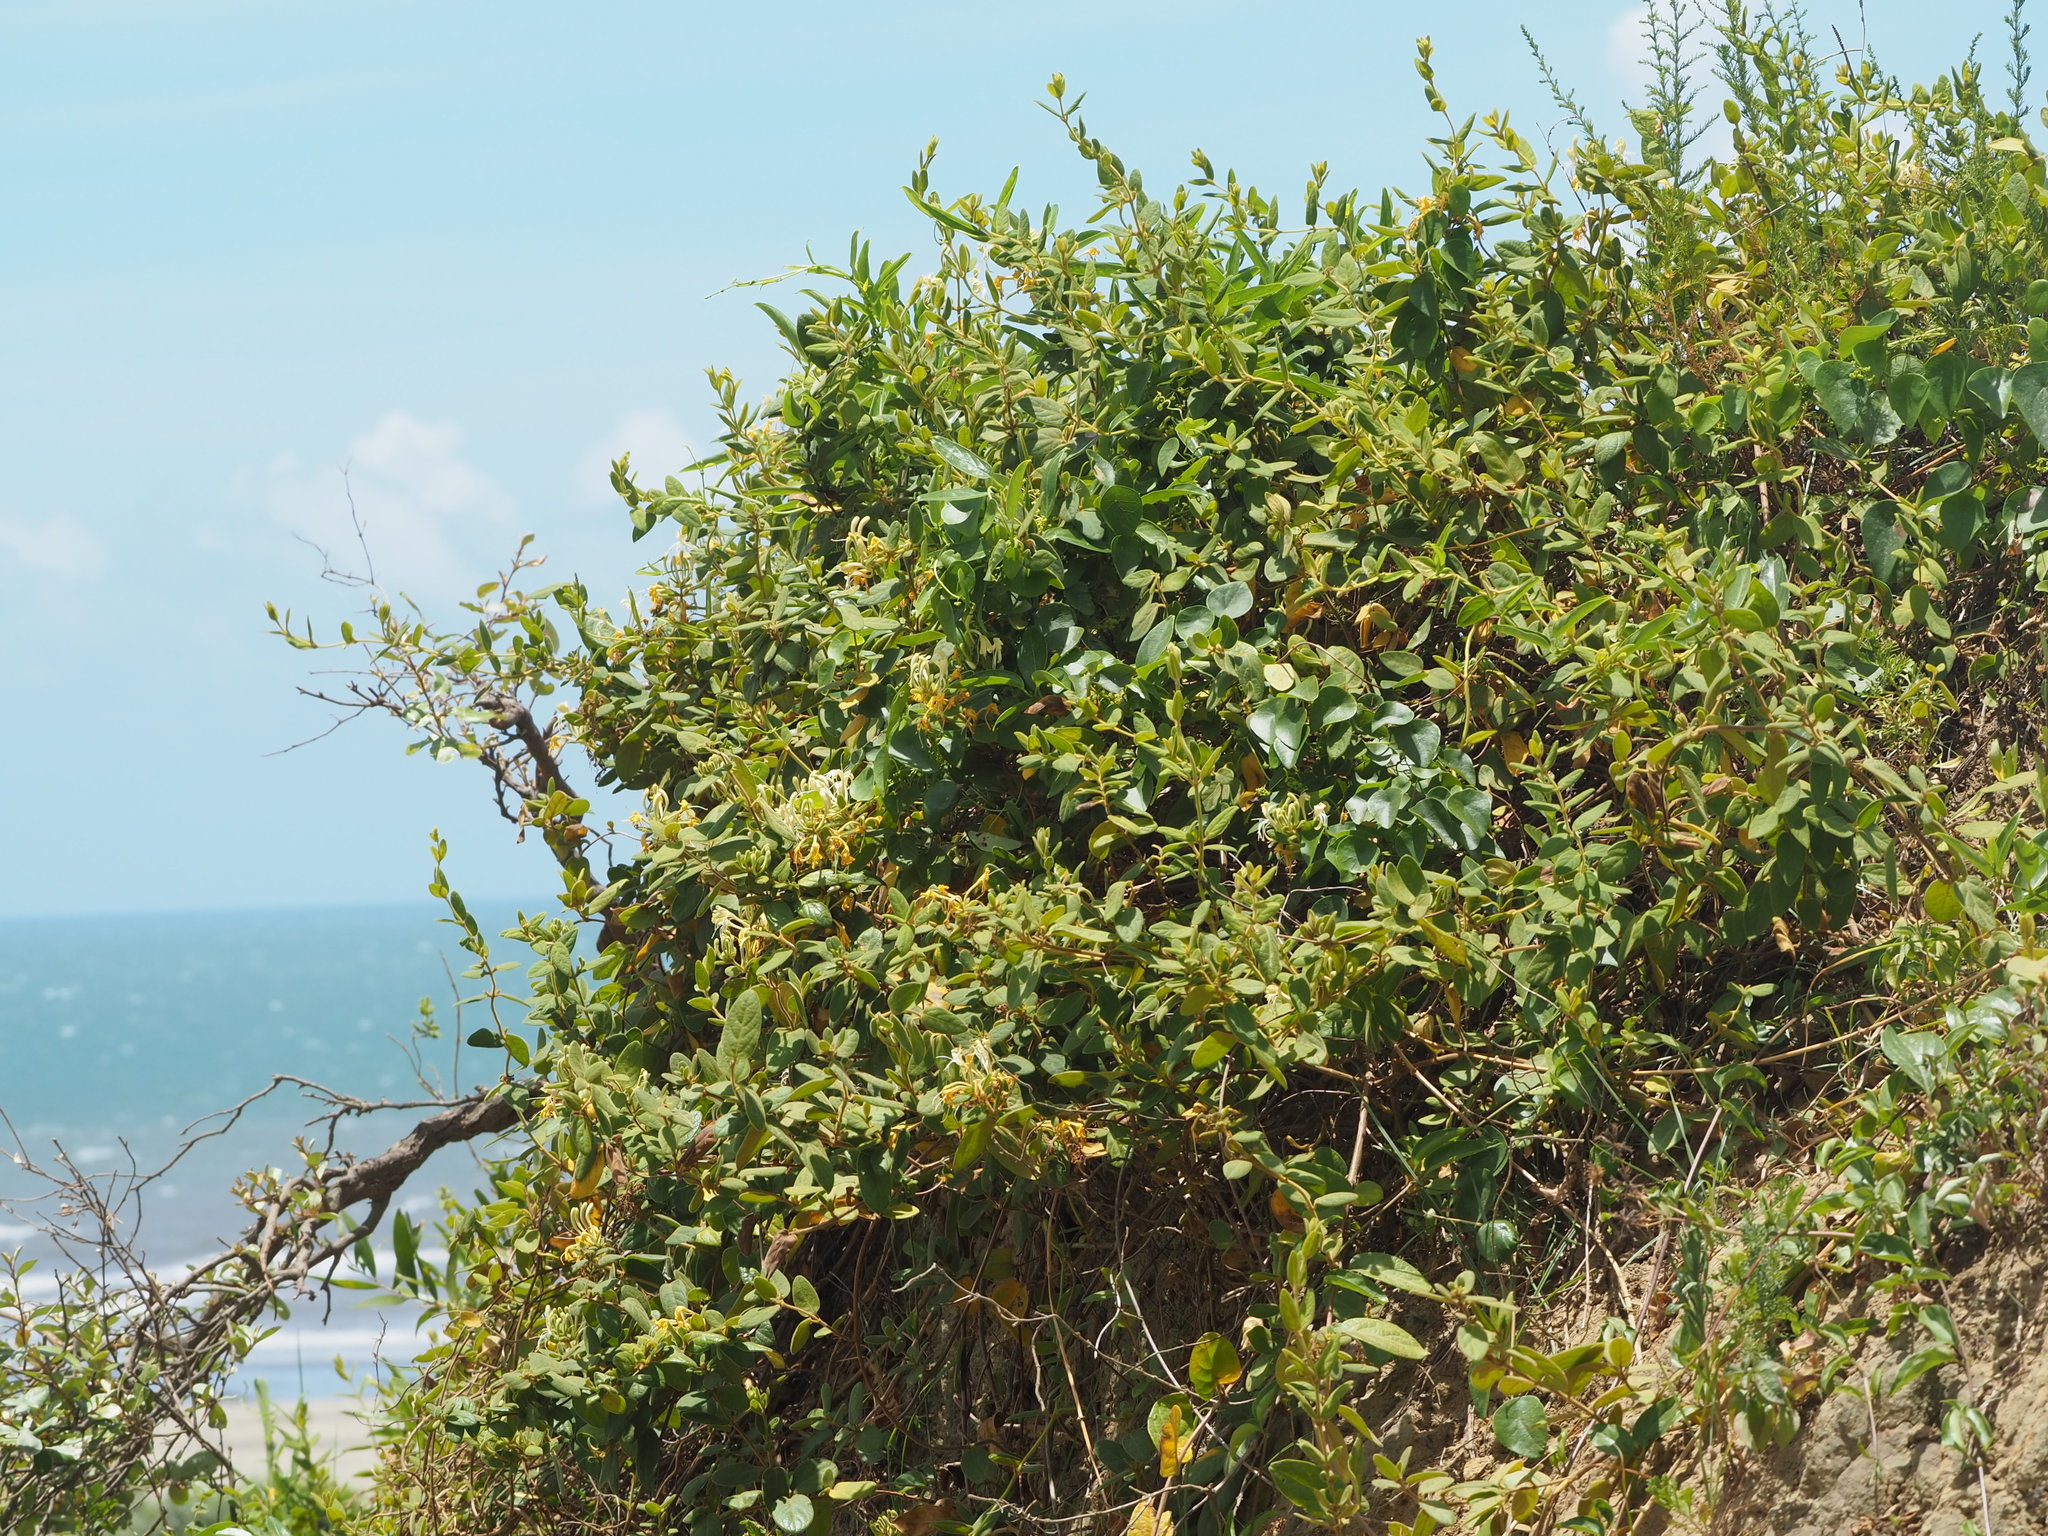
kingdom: Plantae
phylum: Tracheophyta
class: Magnoliopsida
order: Dipsacales
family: Caprifoliaceae
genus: Lonicera
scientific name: Lonicera japonica
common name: Japanese honeysuckle
